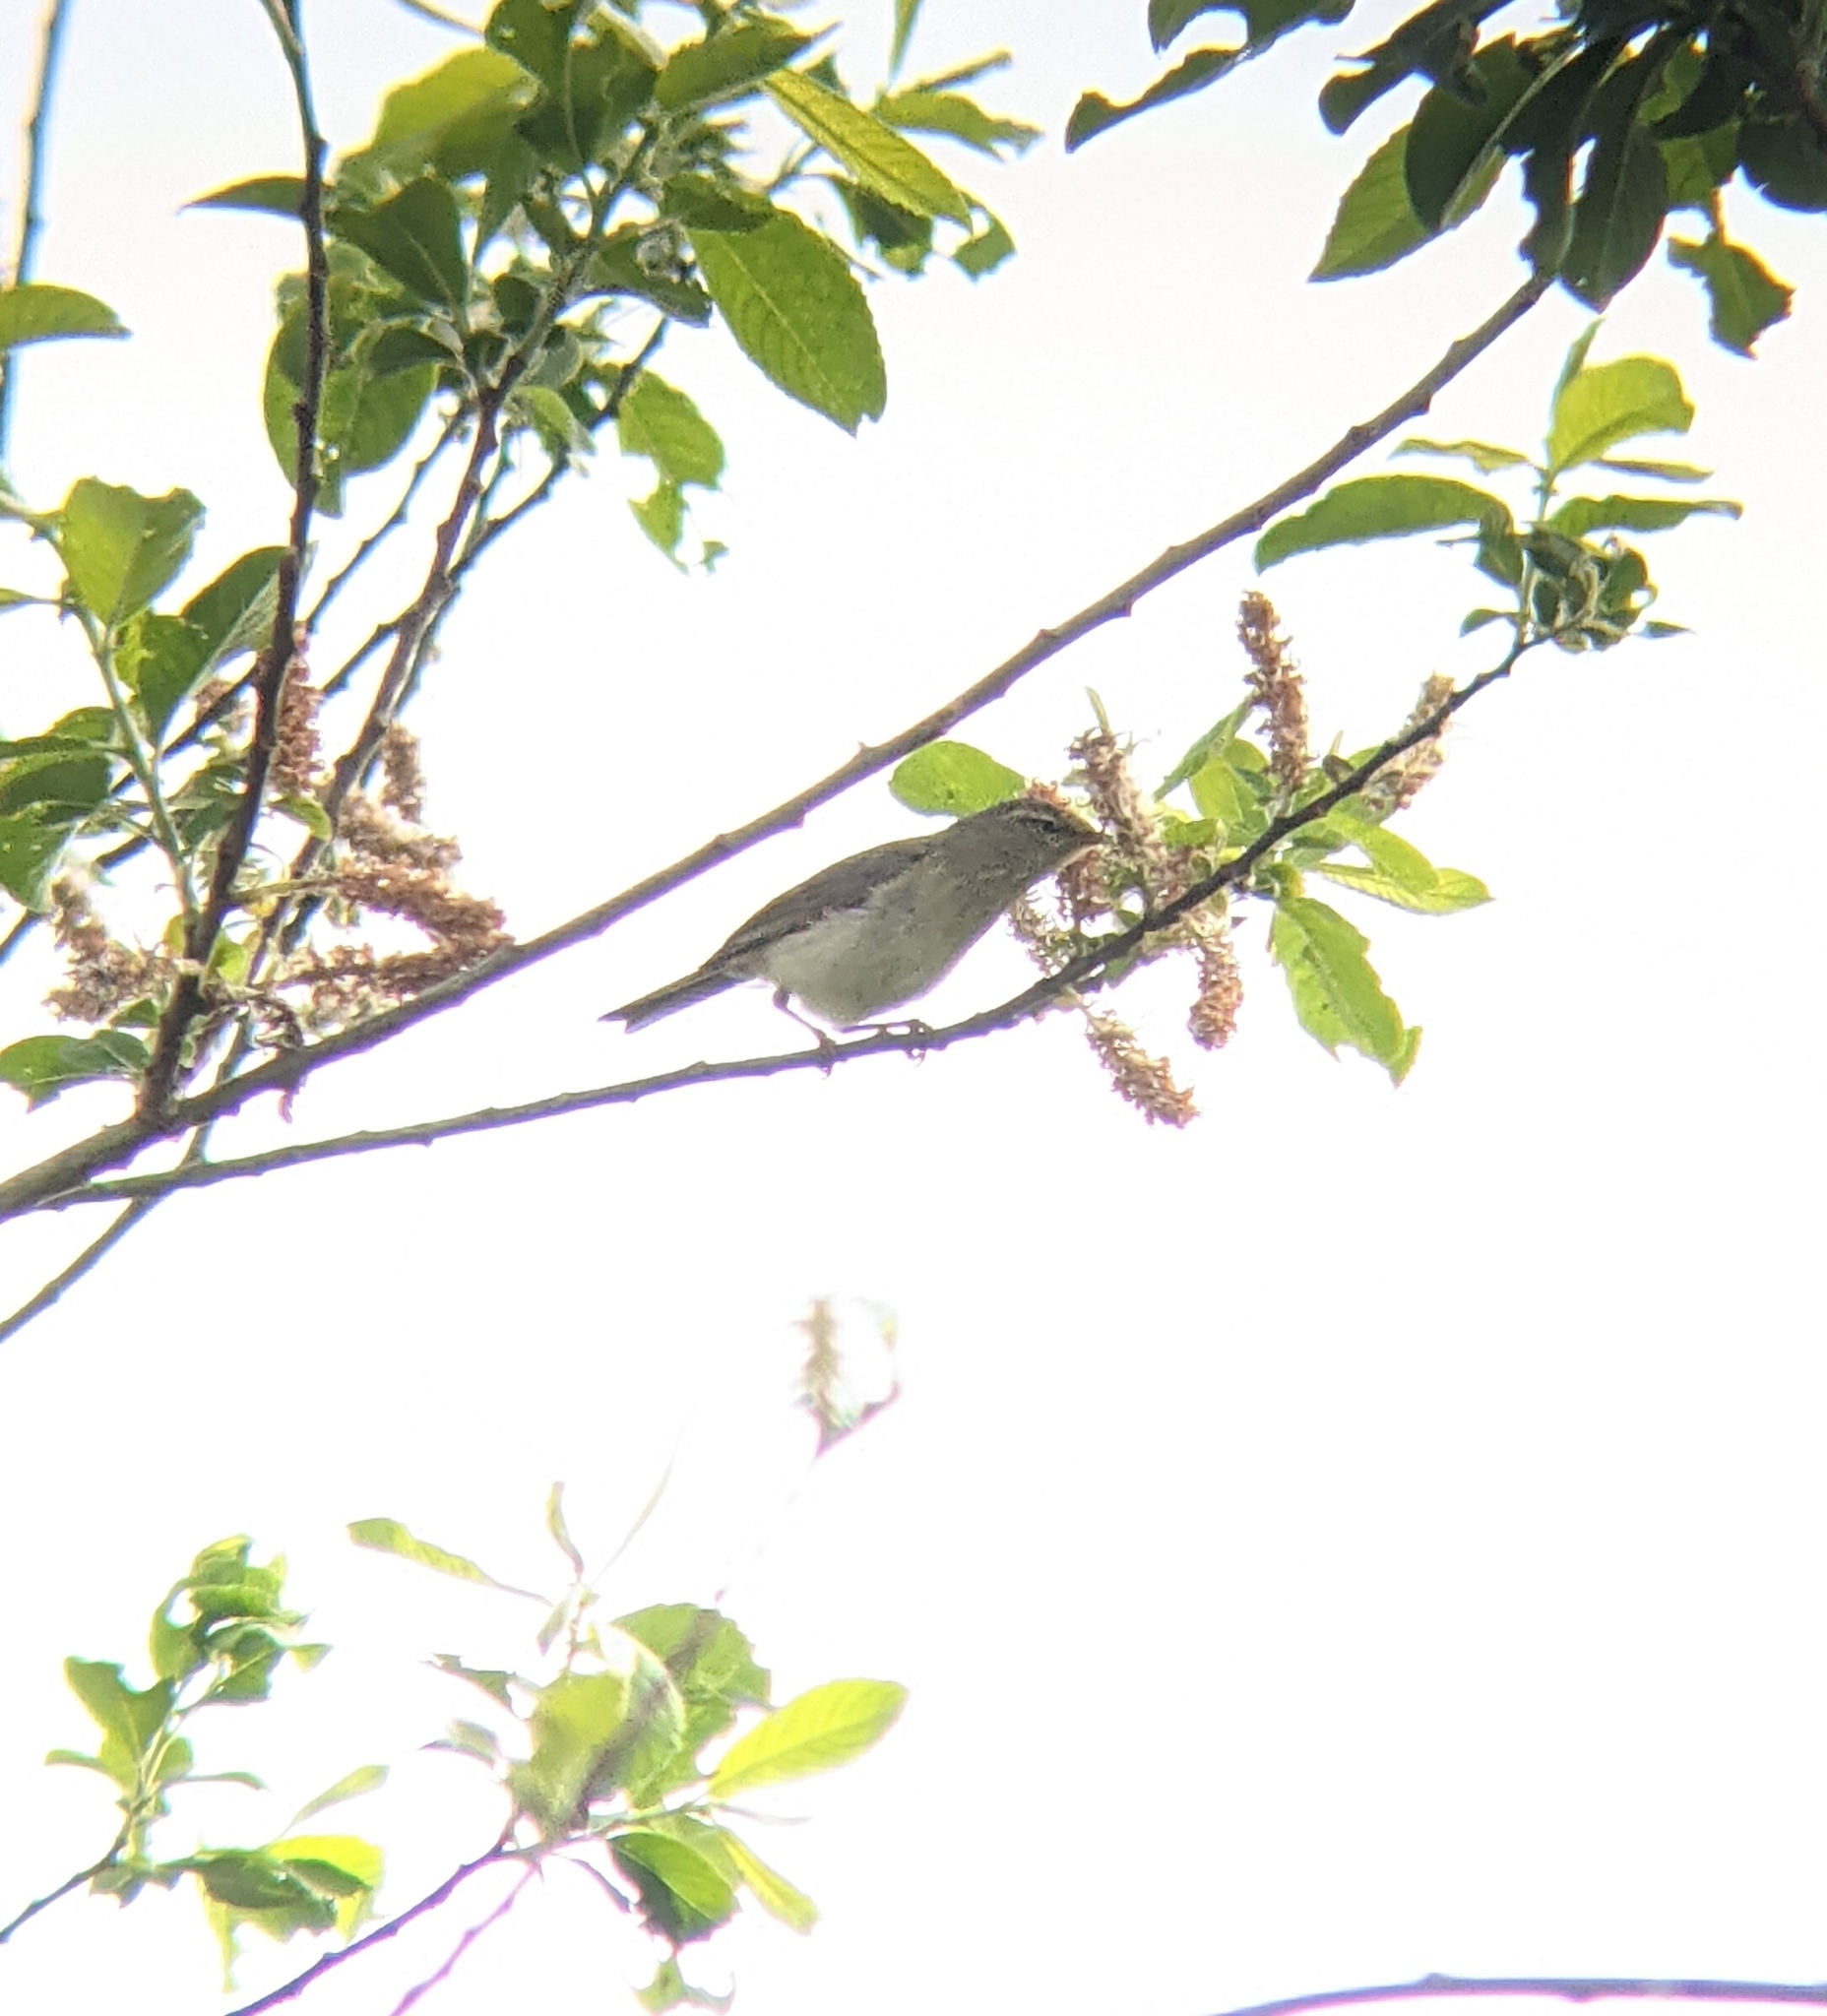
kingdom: Animalia
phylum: Chordata
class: Aves
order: Passeriformes
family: Phylloscopidae
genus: Phylloscopus
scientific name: Phylloscopus collybita
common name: Common chiffchaff
